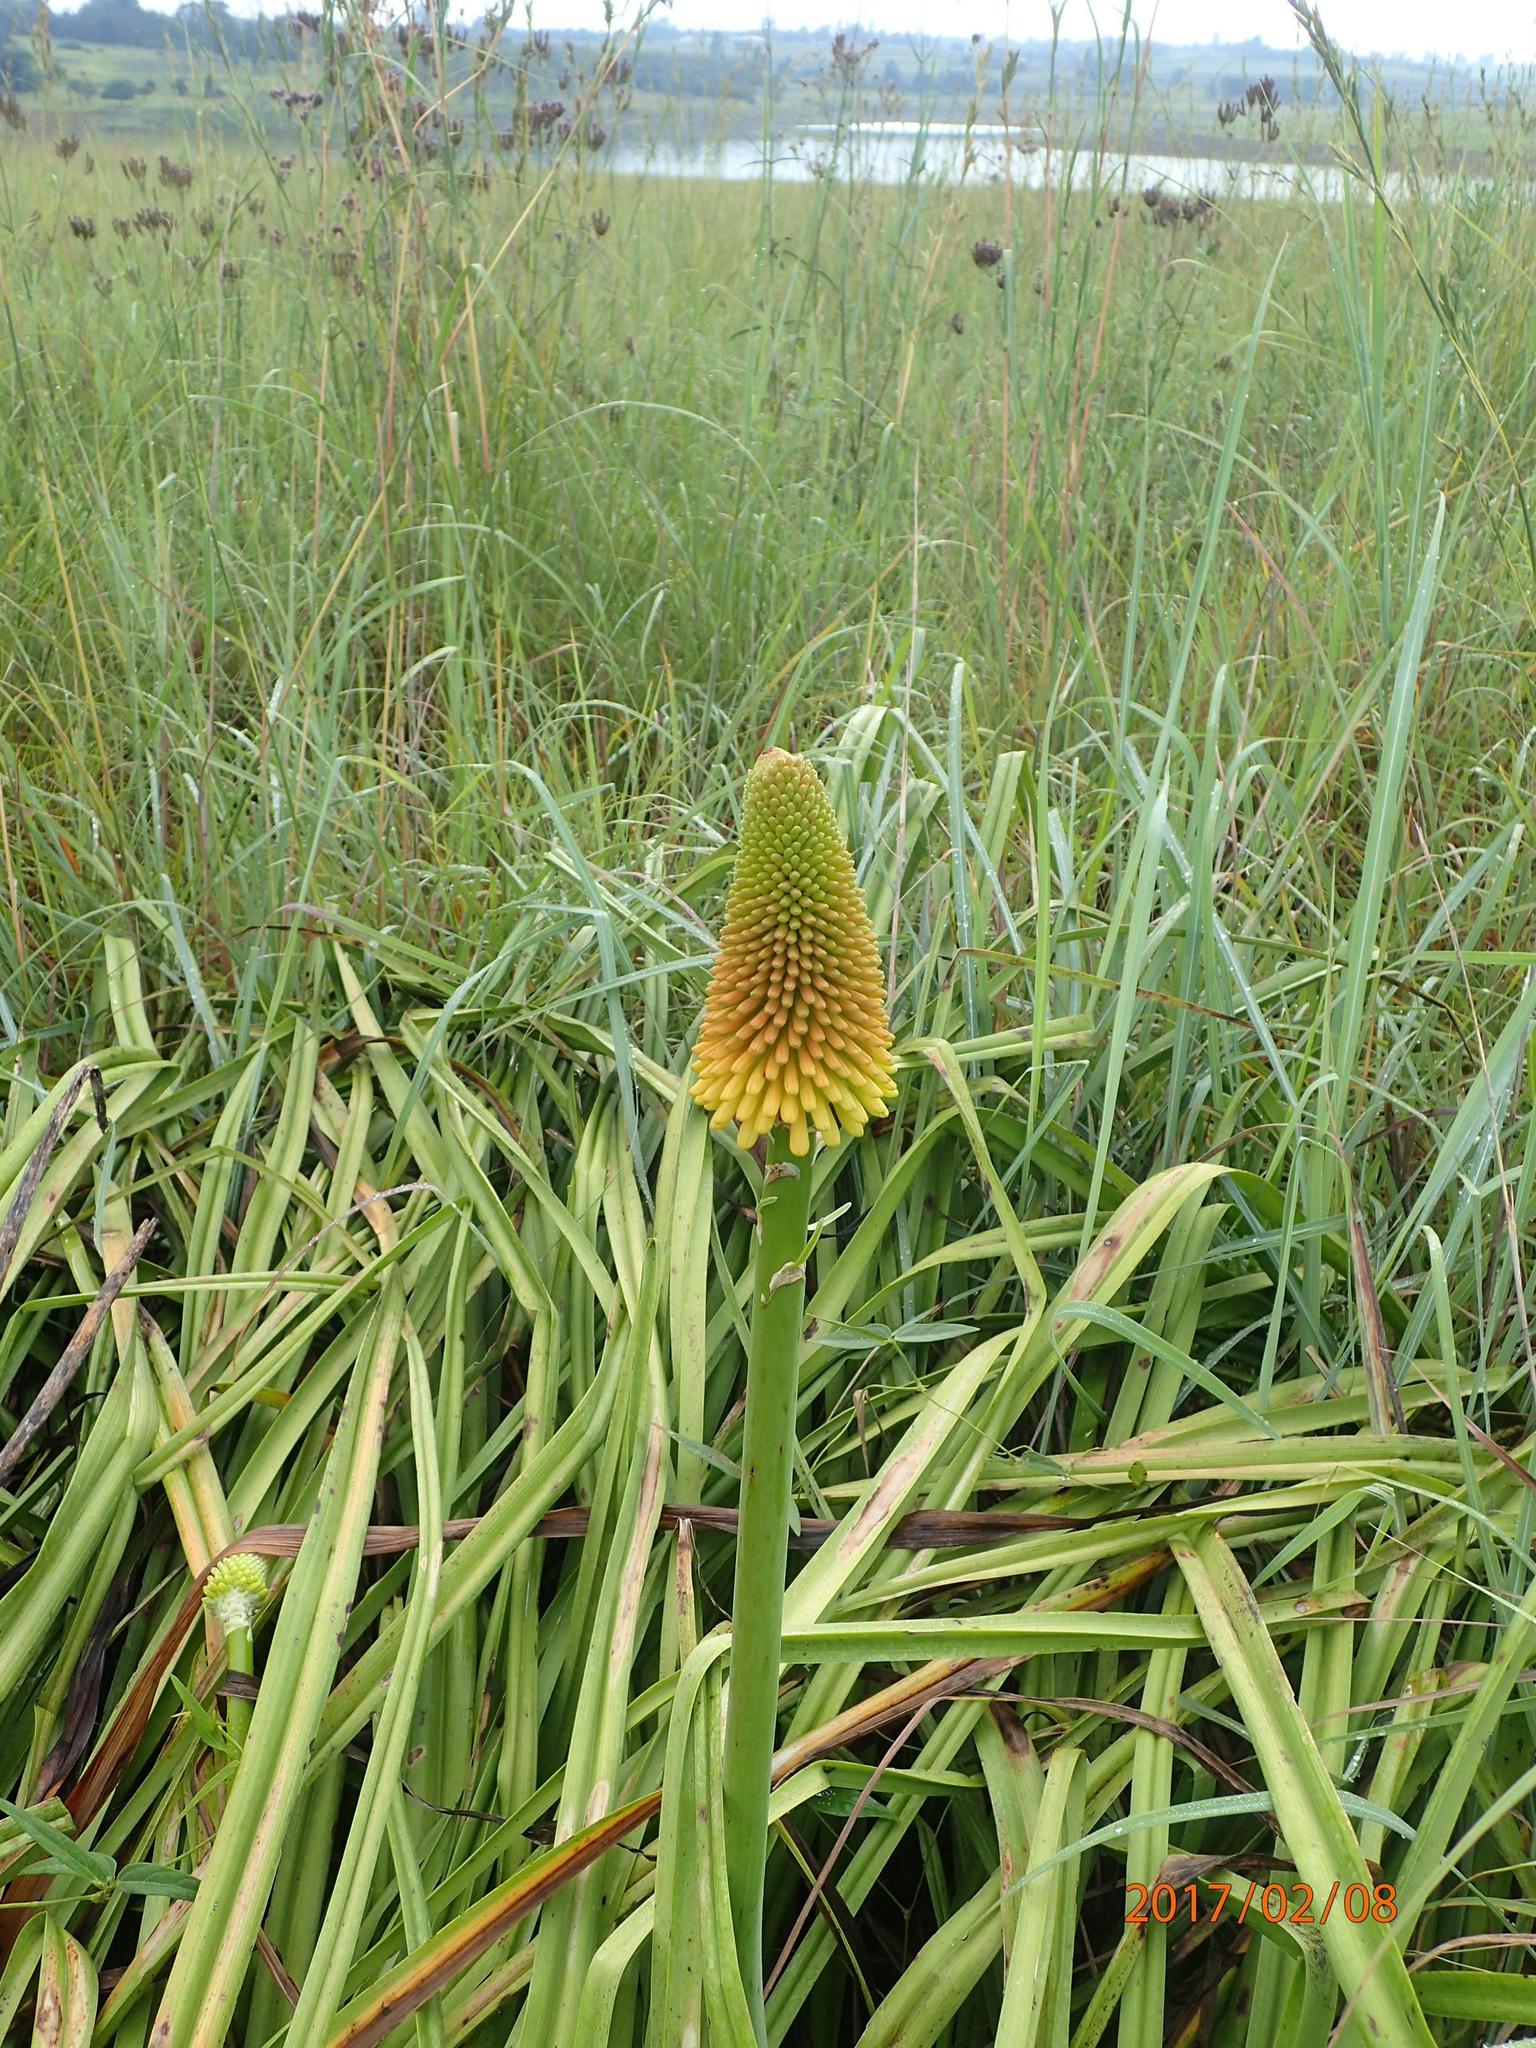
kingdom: Plantae
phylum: Tracheophyta
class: Liliopsida
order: Asparagales
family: Asphodelaceae
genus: Kniphofia
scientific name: Kniphofia linearifolia
